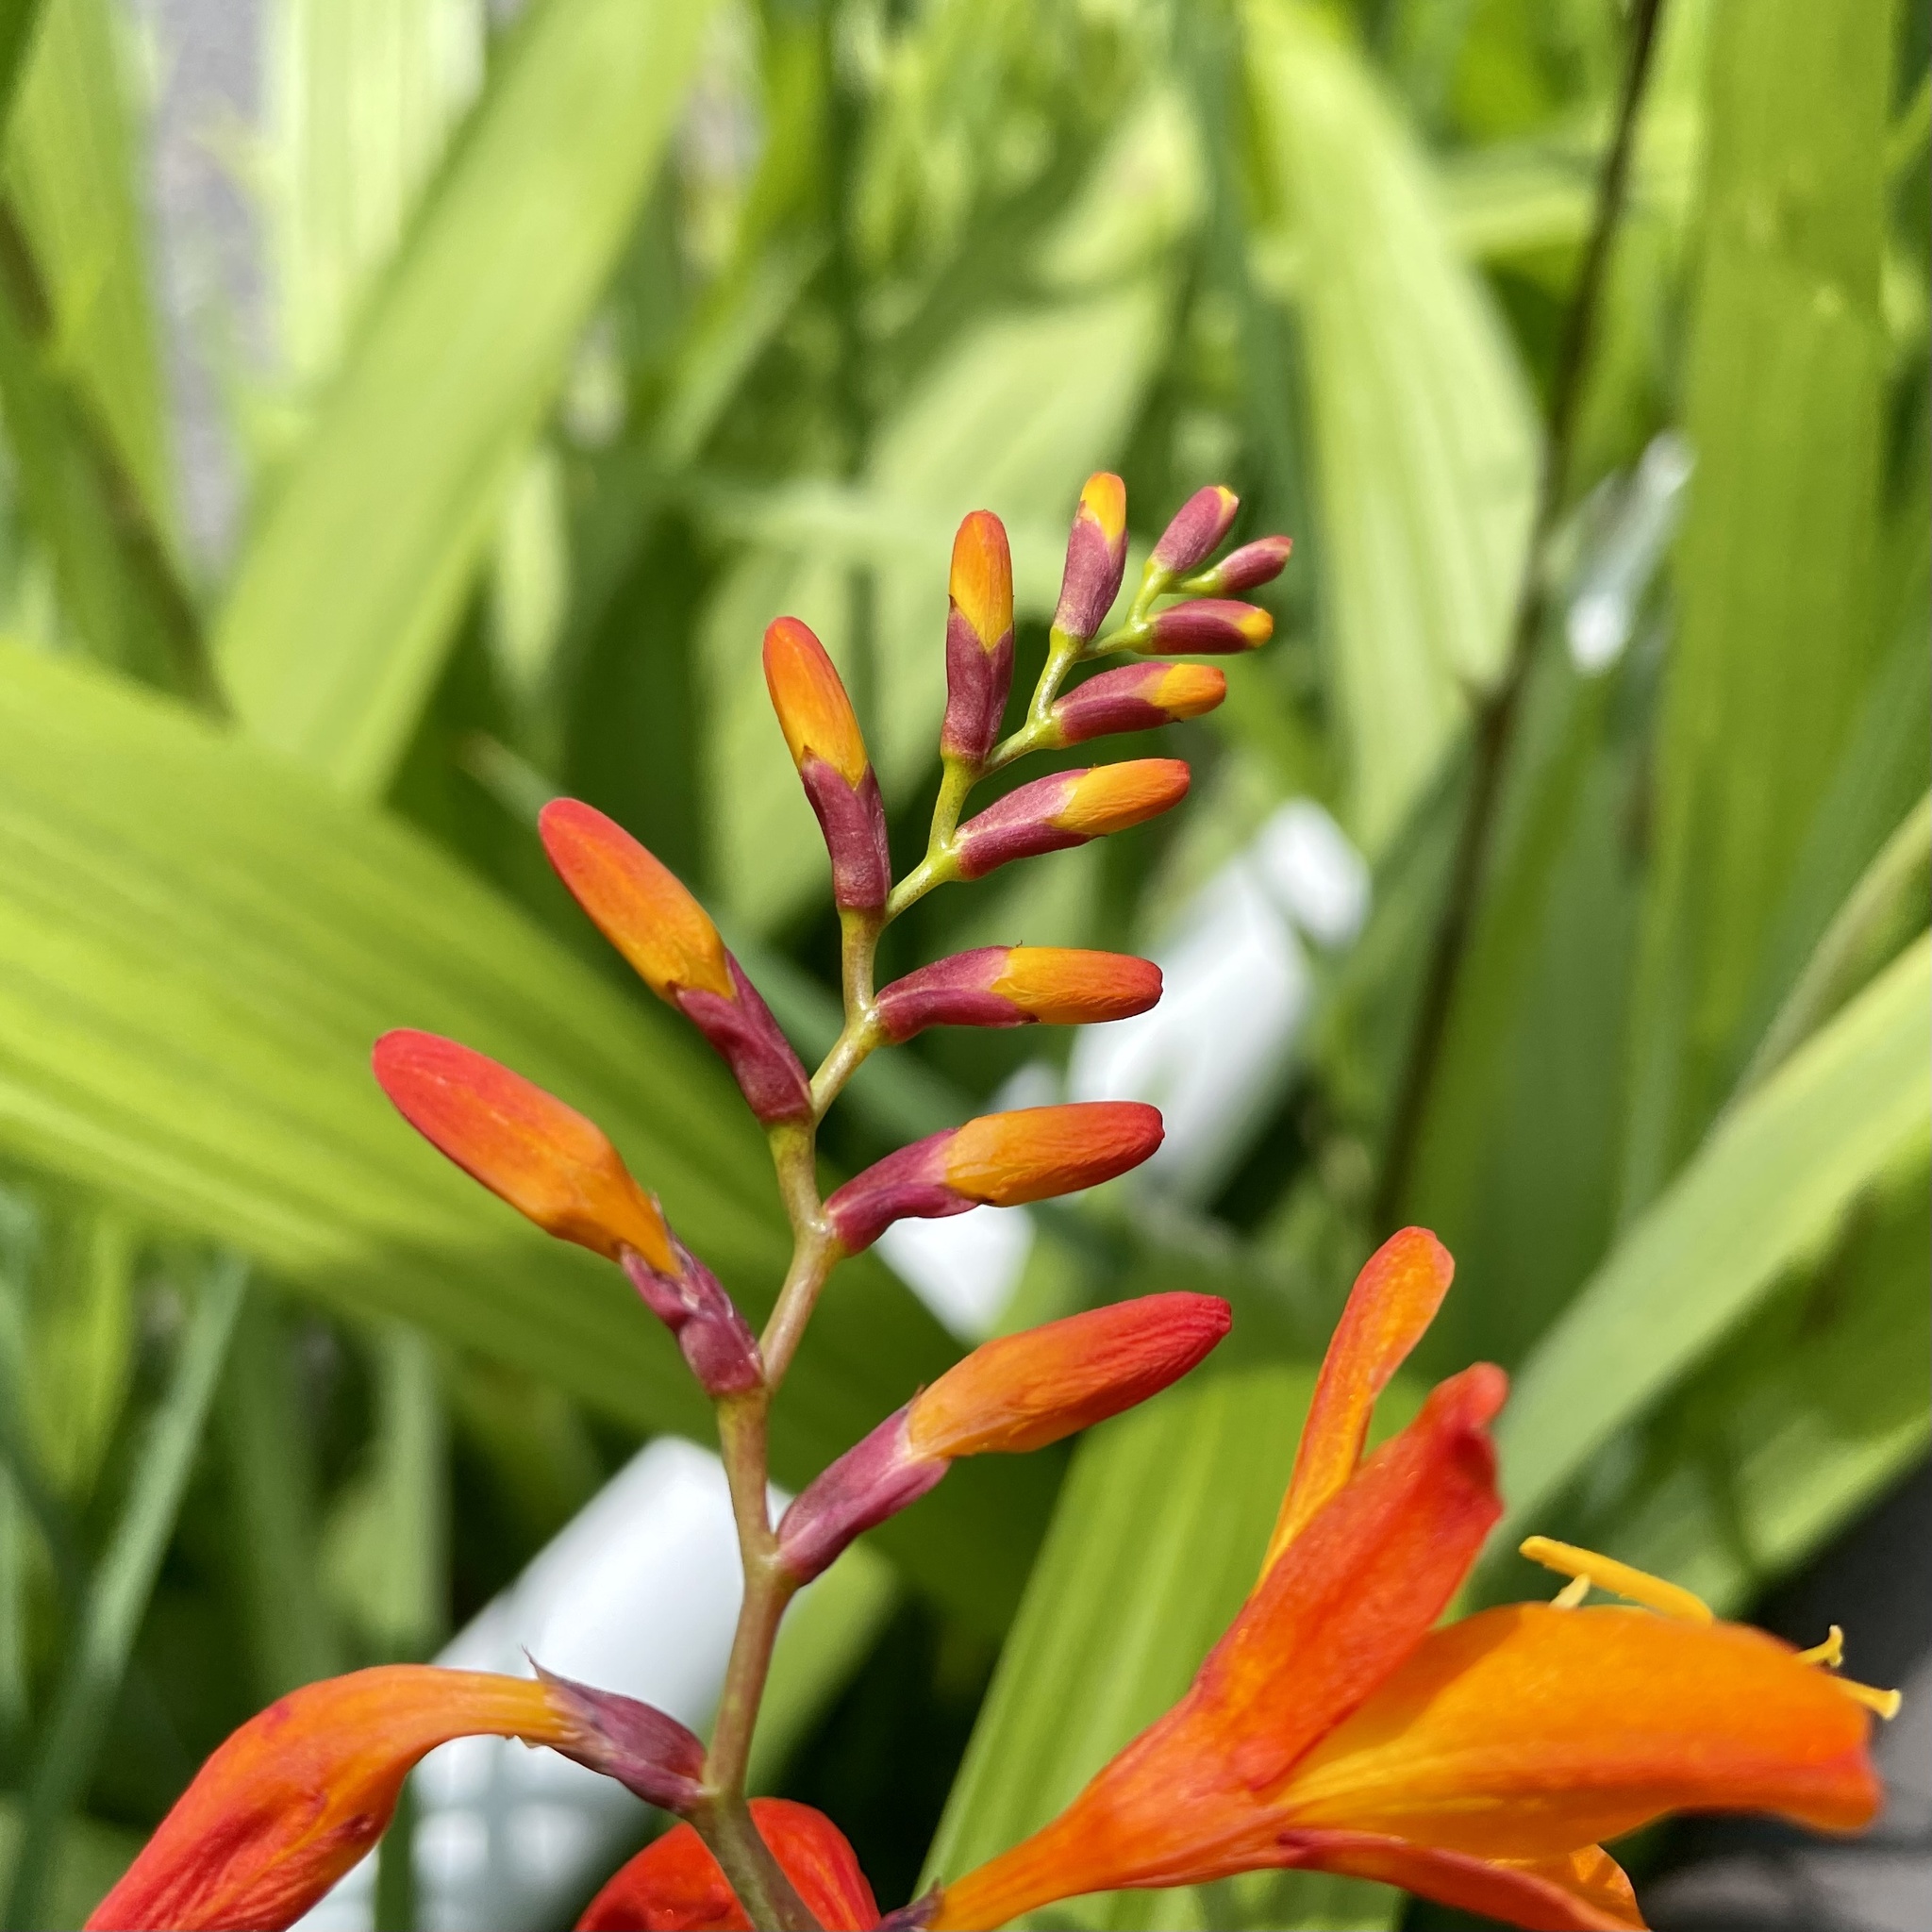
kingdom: Plantae
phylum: Tracheophyta
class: Liliopsida
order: Asparagales
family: Iridaceae
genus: Crocosmia
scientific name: Crocosmia crocosmiiflora
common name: Montbretia
